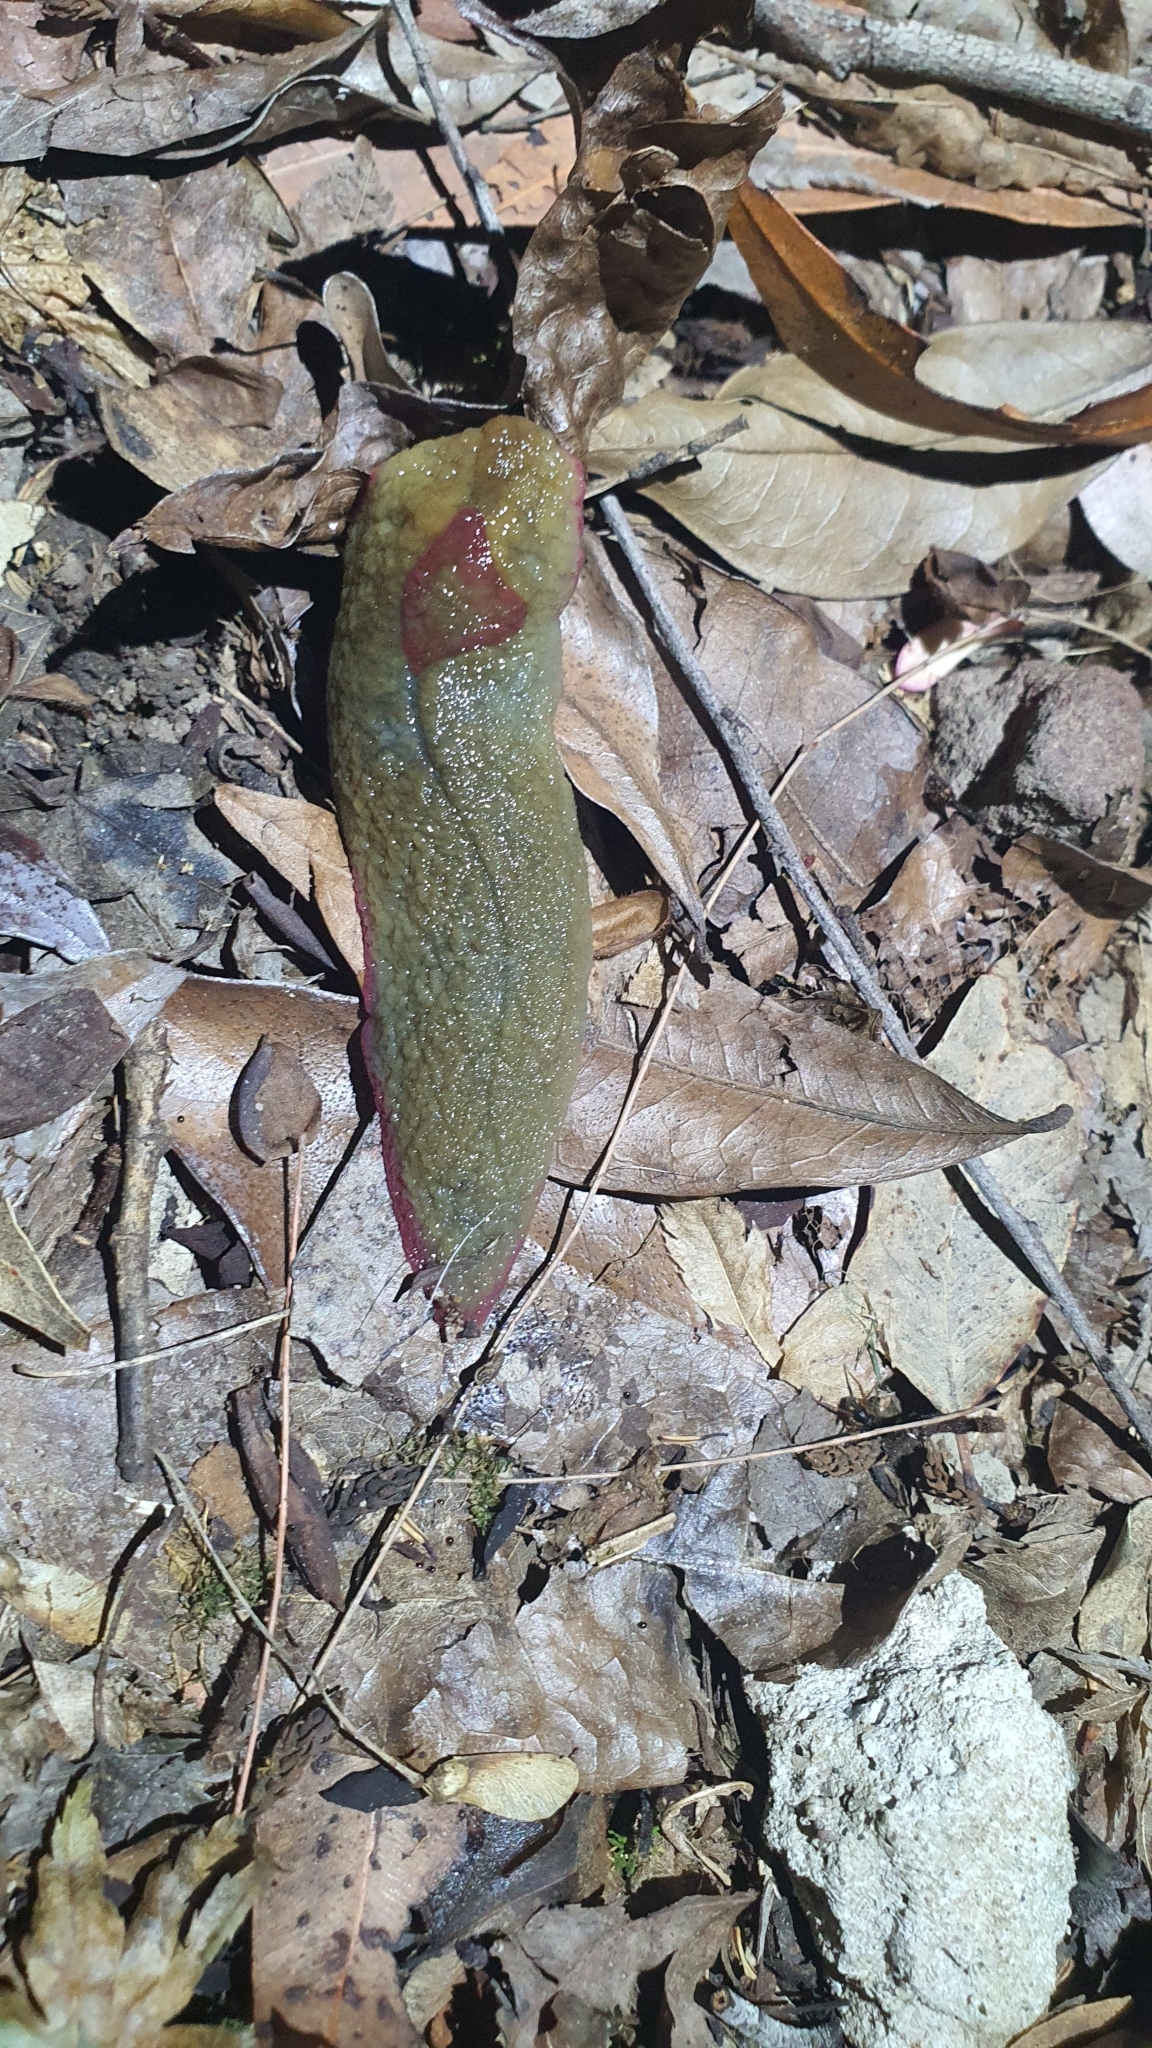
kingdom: Animalia
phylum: Mollusca
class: Gastropoda
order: Stylommatophora
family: Athoracophoridae
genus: Triboniophorus
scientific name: Triboniophorus graeffei
